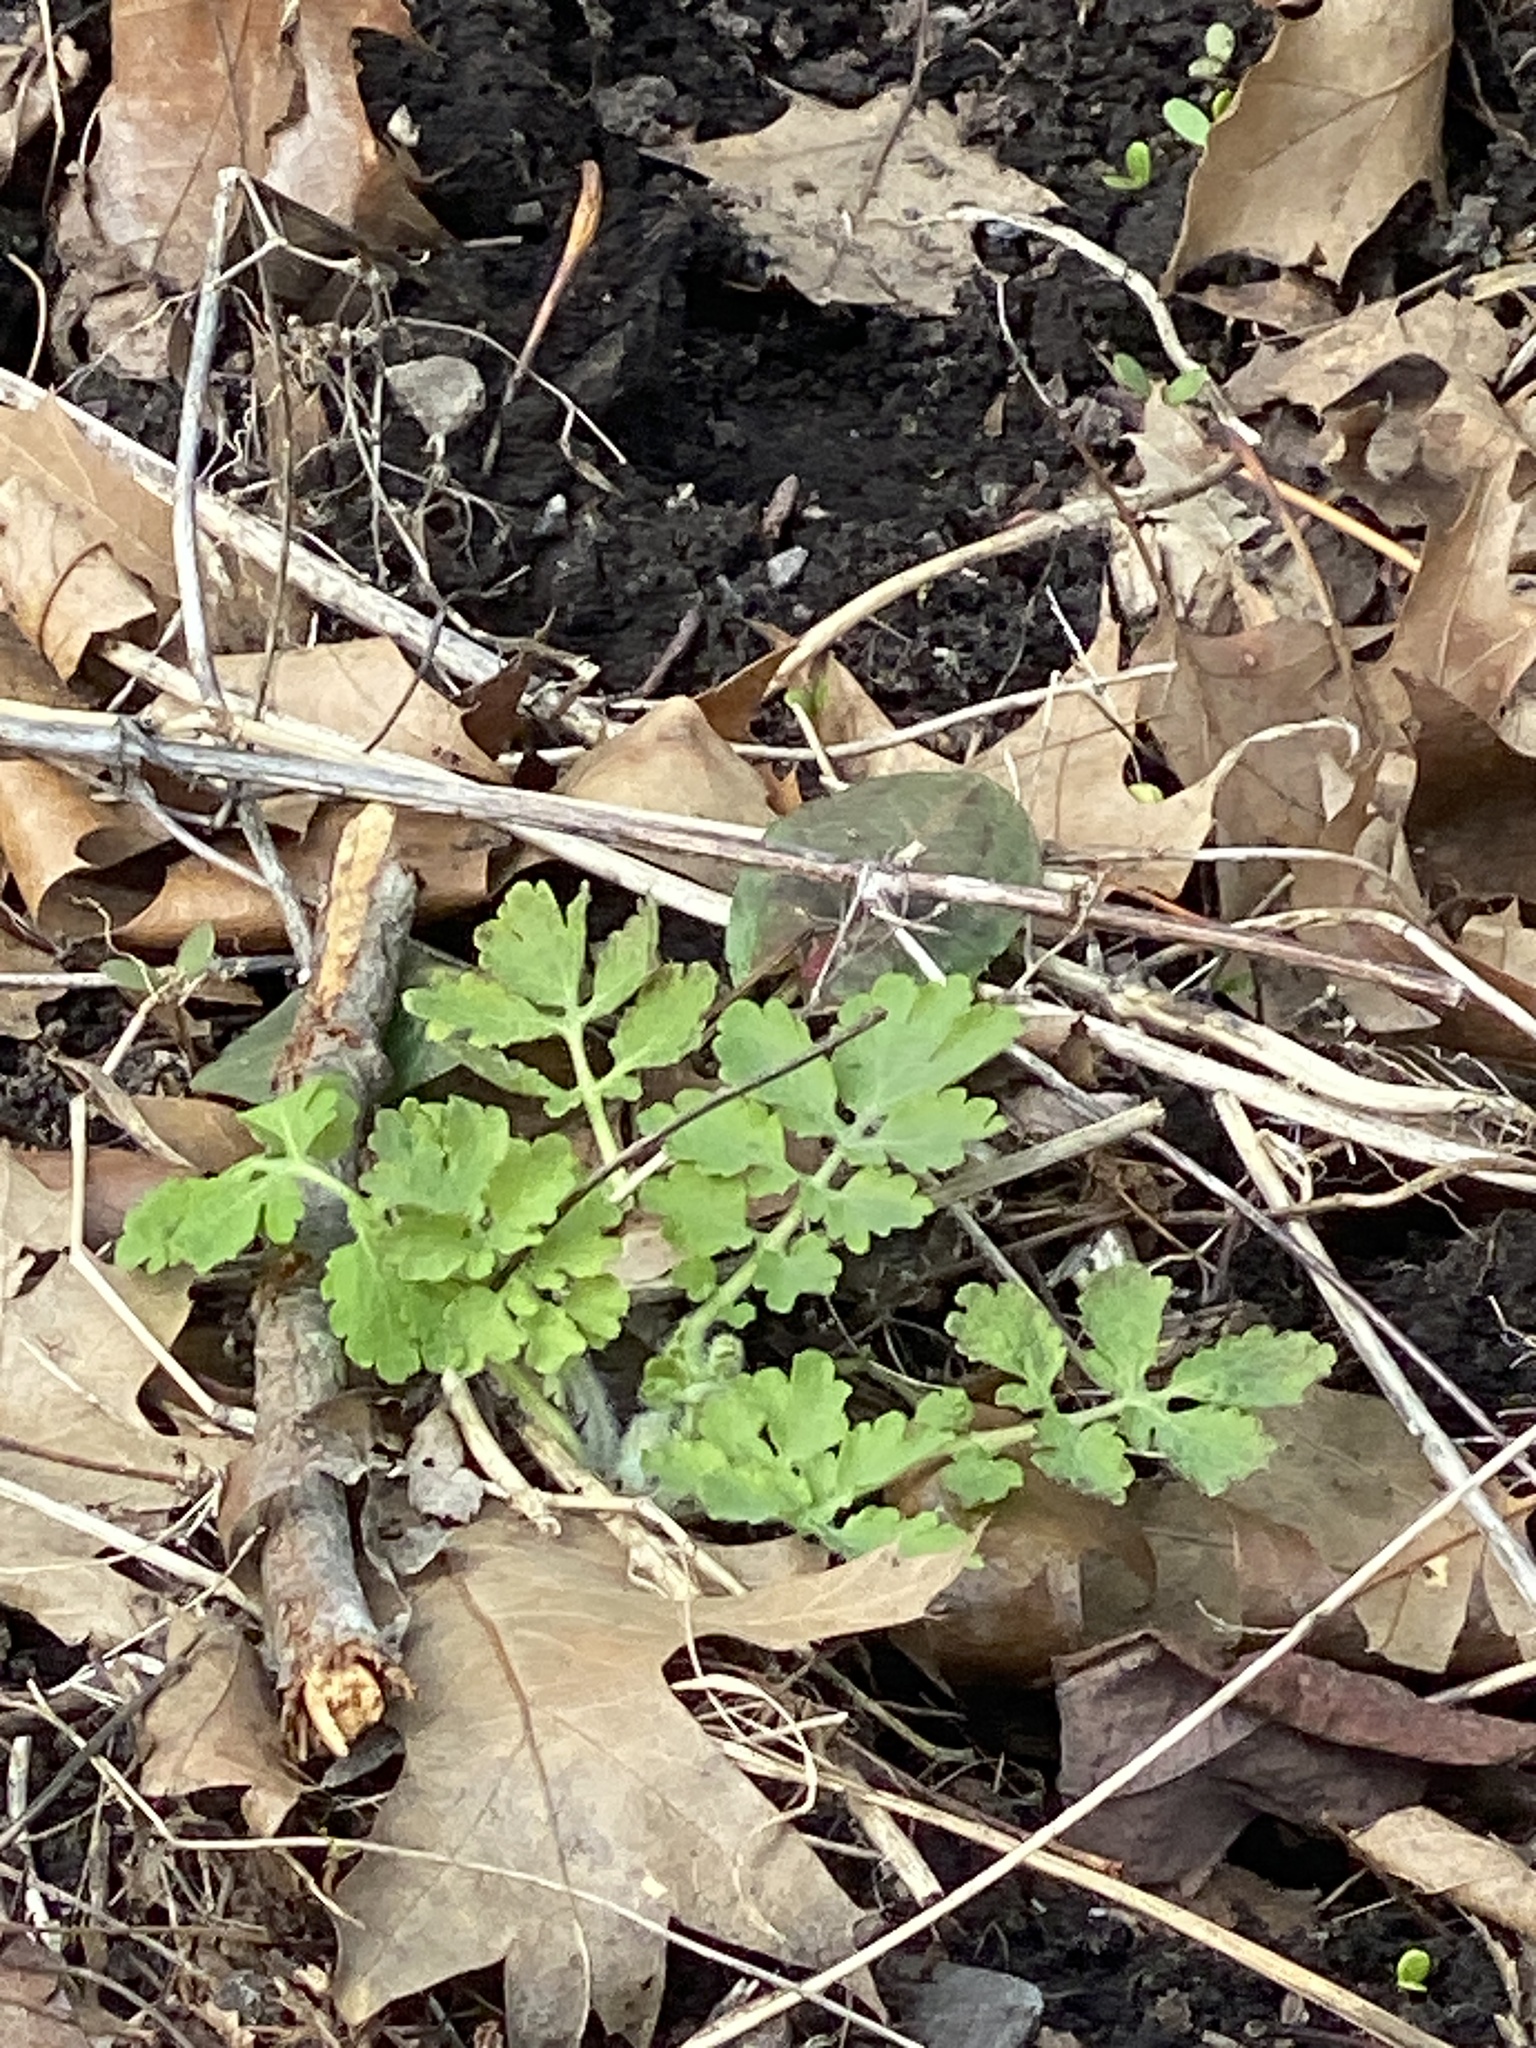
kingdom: Plantae
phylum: Tracheophyta
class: Magnoliopsida
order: Ranunculales
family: Papaveraceae
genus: Chelidonium
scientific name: Chelidonium majus
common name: Greater celandine
